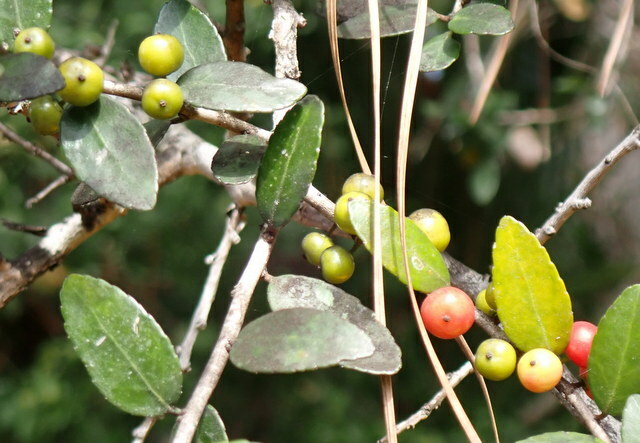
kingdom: Plantae
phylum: Tracheophyta
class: Magnoliopsida
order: Aquifoliales
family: Aquifoliaceae
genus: Ilex
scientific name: Ilex vomitoria
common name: Yaupon holly
